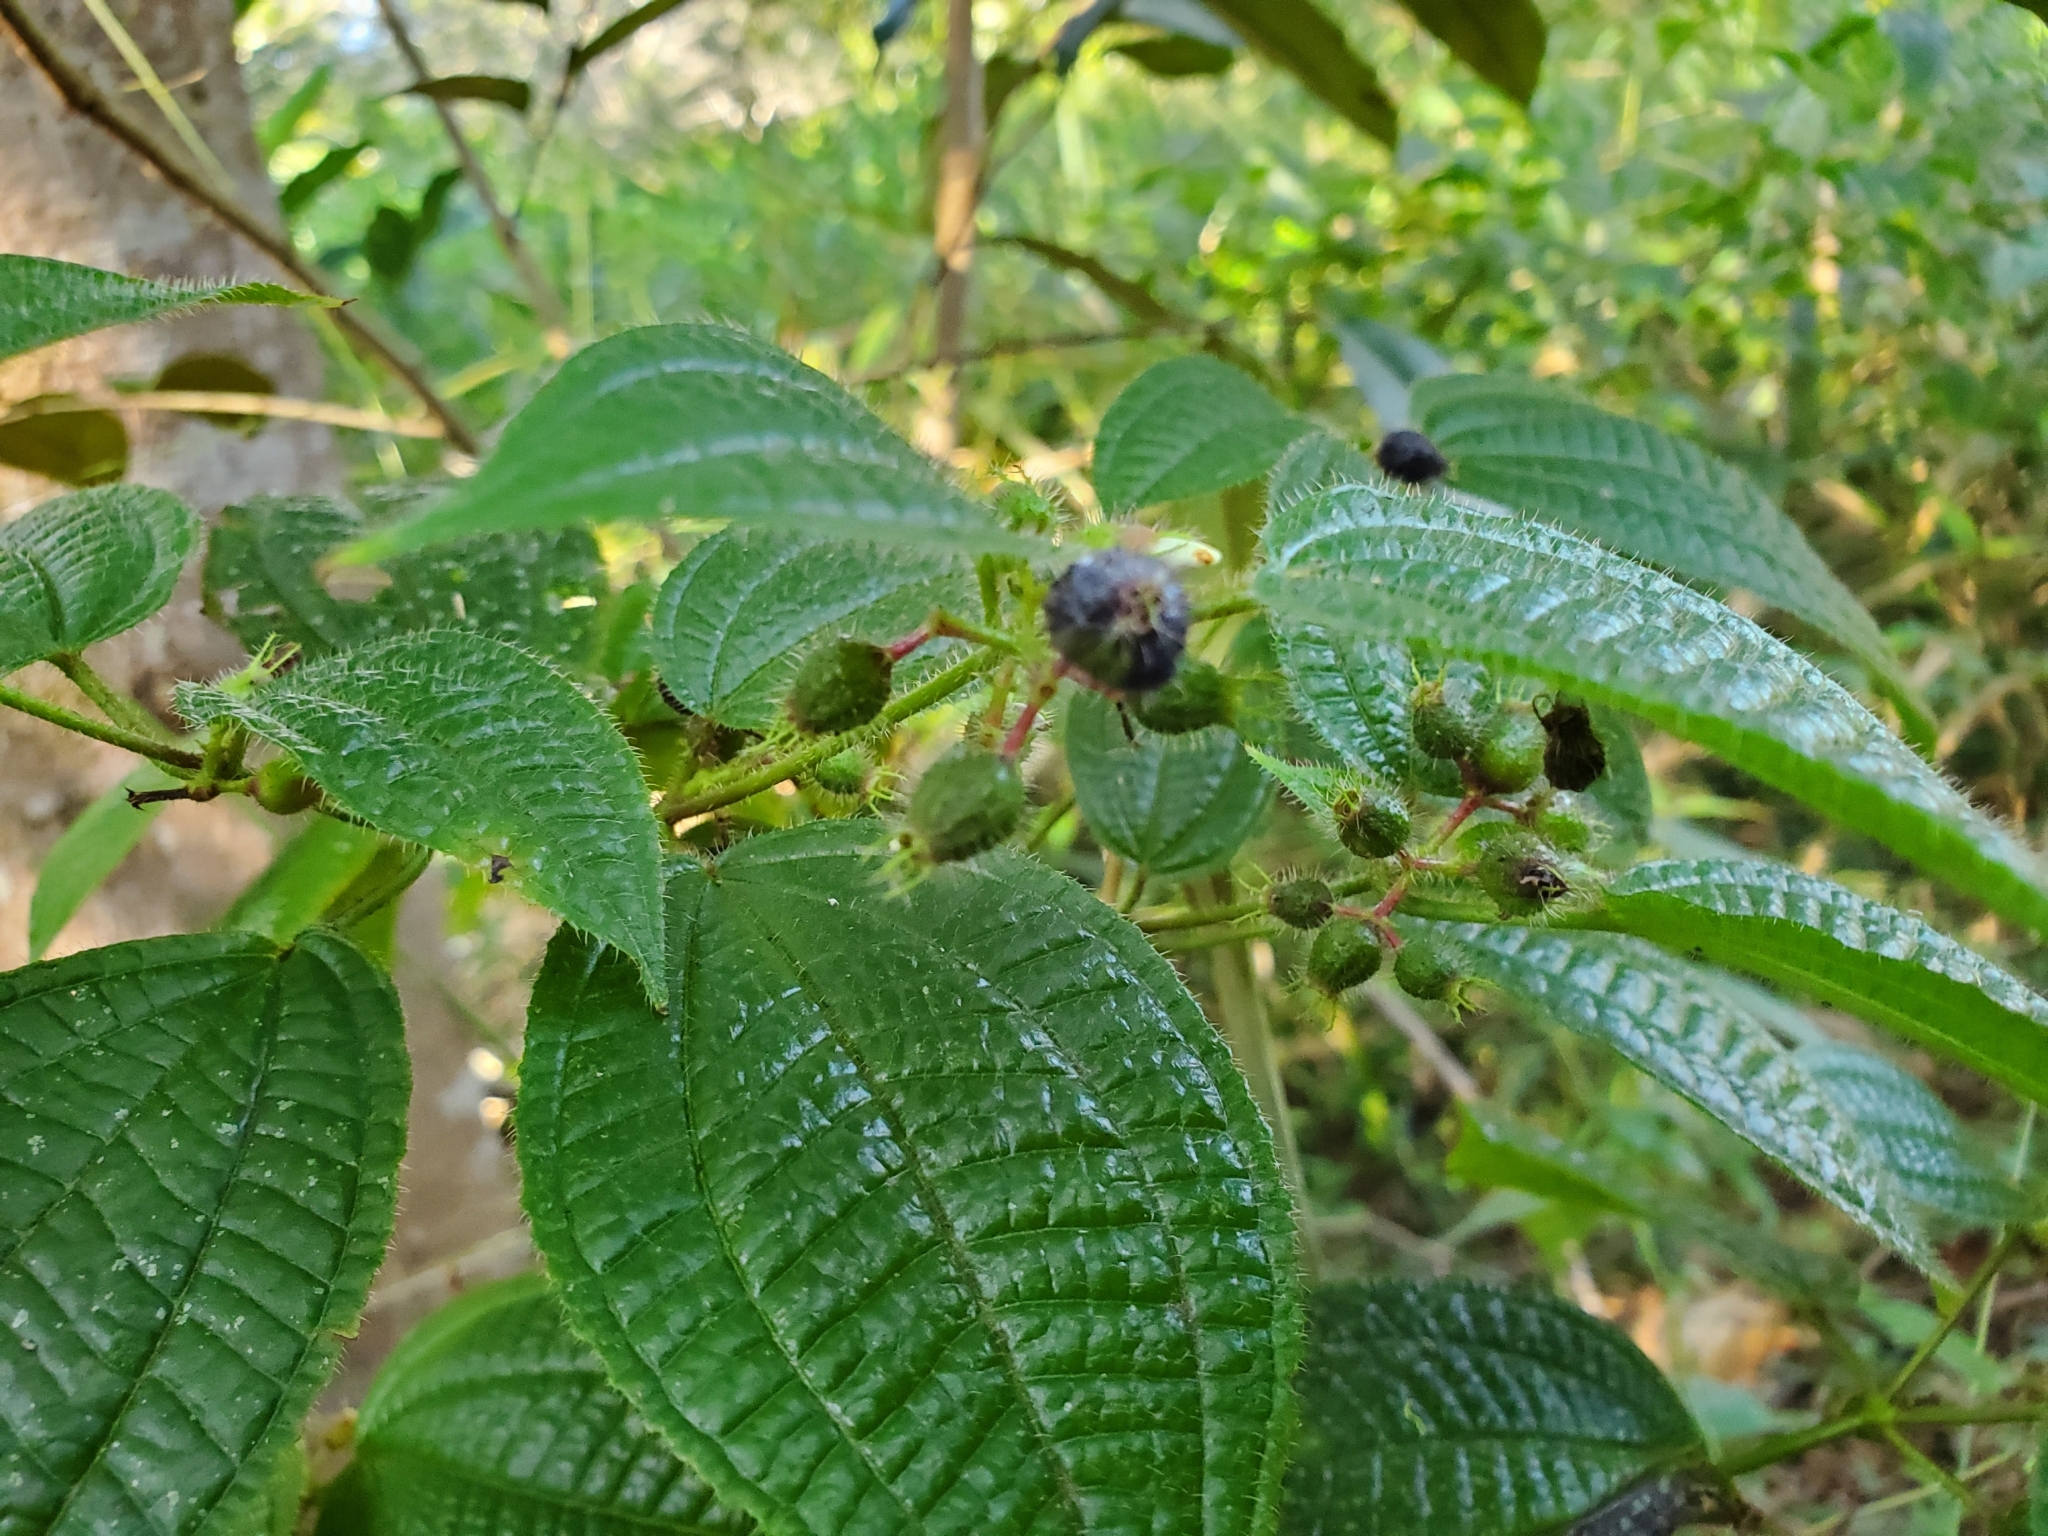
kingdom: Plantae
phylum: Tracheophyta
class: Magnoliopsida
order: Myrtales
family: Melastomataceae
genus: Miconia
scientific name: Miconia crenata
